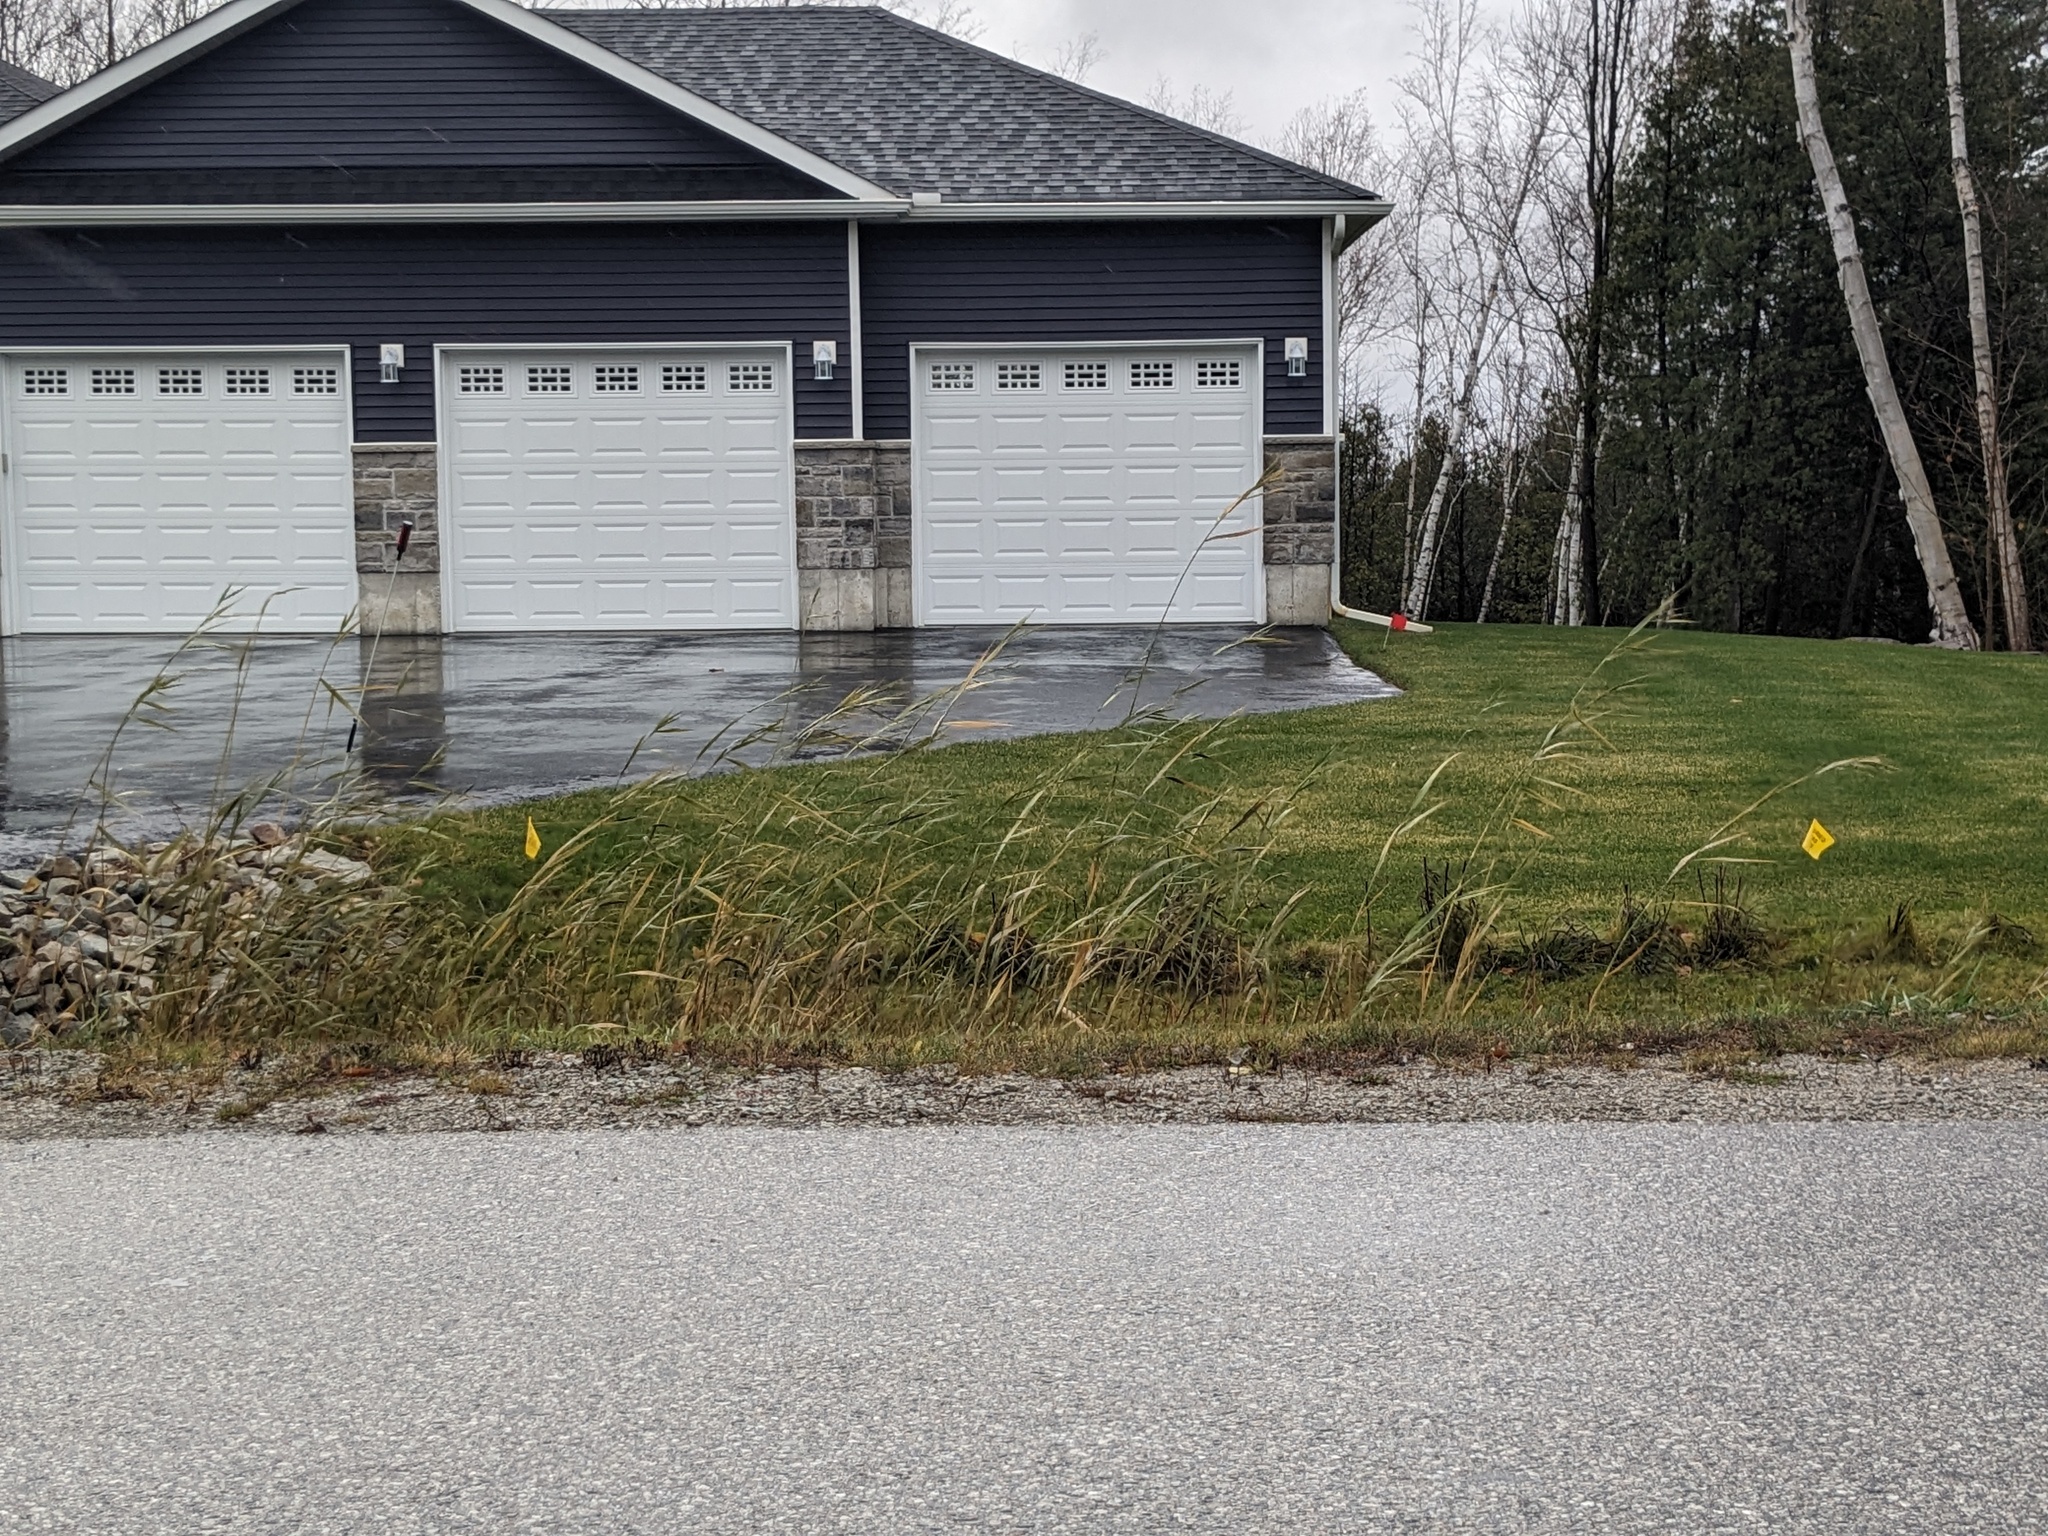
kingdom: Plantae
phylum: Tracheophyta
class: Liliopsida
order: Poales
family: Poaceae
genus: Phragmites
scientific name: Phragmites australis
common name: Common reed
